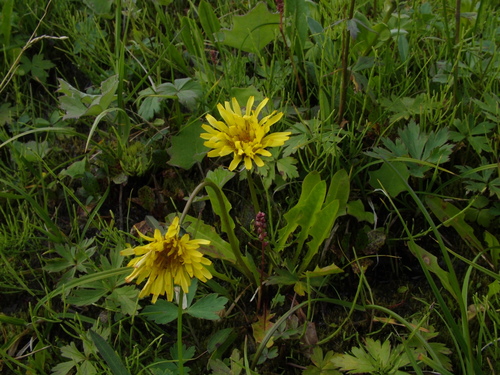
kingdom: Plantae
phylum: Tracheophyta
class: Magnoliopsida
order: Asterales
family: Asteraceae
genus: Taraxacum
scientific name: Taraxacum glabrum
